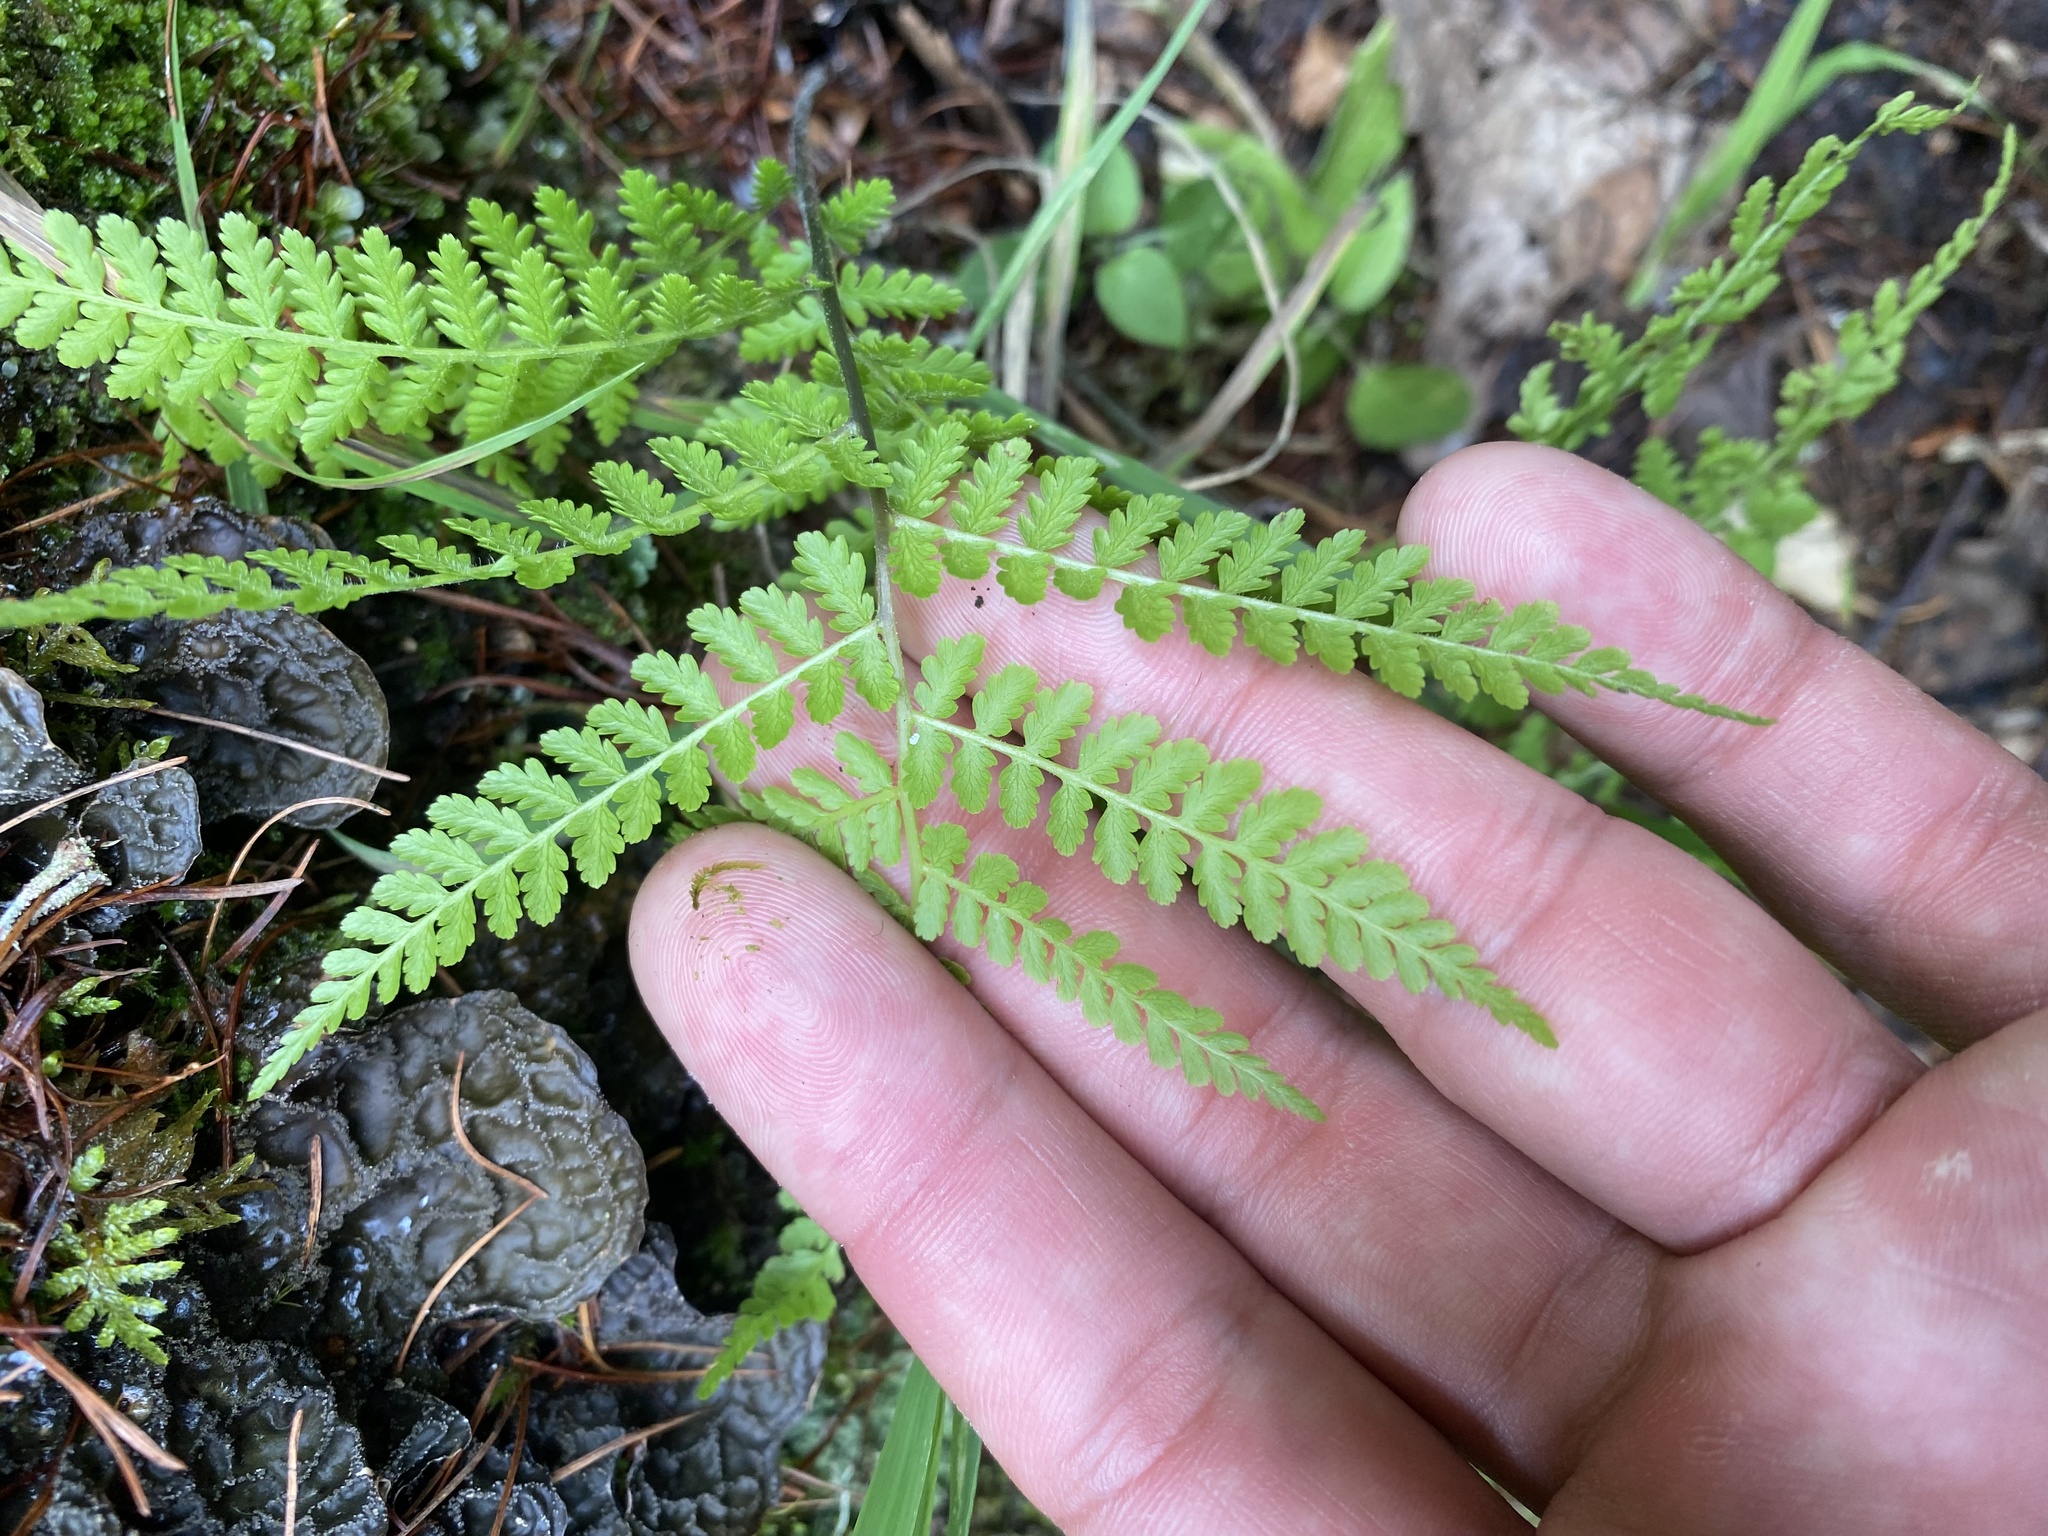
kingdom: Plantae
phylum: Tracheophyta
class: Polypodiopsida
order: Polypodiales
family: Athyriaceae
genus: Diplazium
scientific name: Diplazium sibiricum
